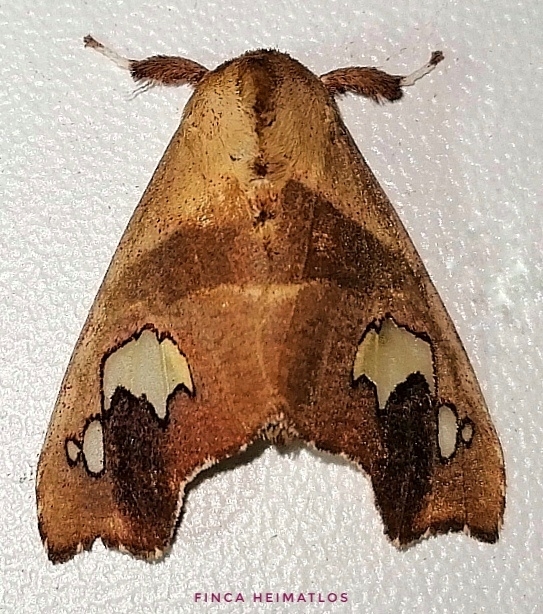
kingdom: Animalia
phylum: Arthropoda
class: Insecta
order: Lepidoptera
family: Erebidae
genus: Zatrephes
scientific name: Zatrephes haxairei
